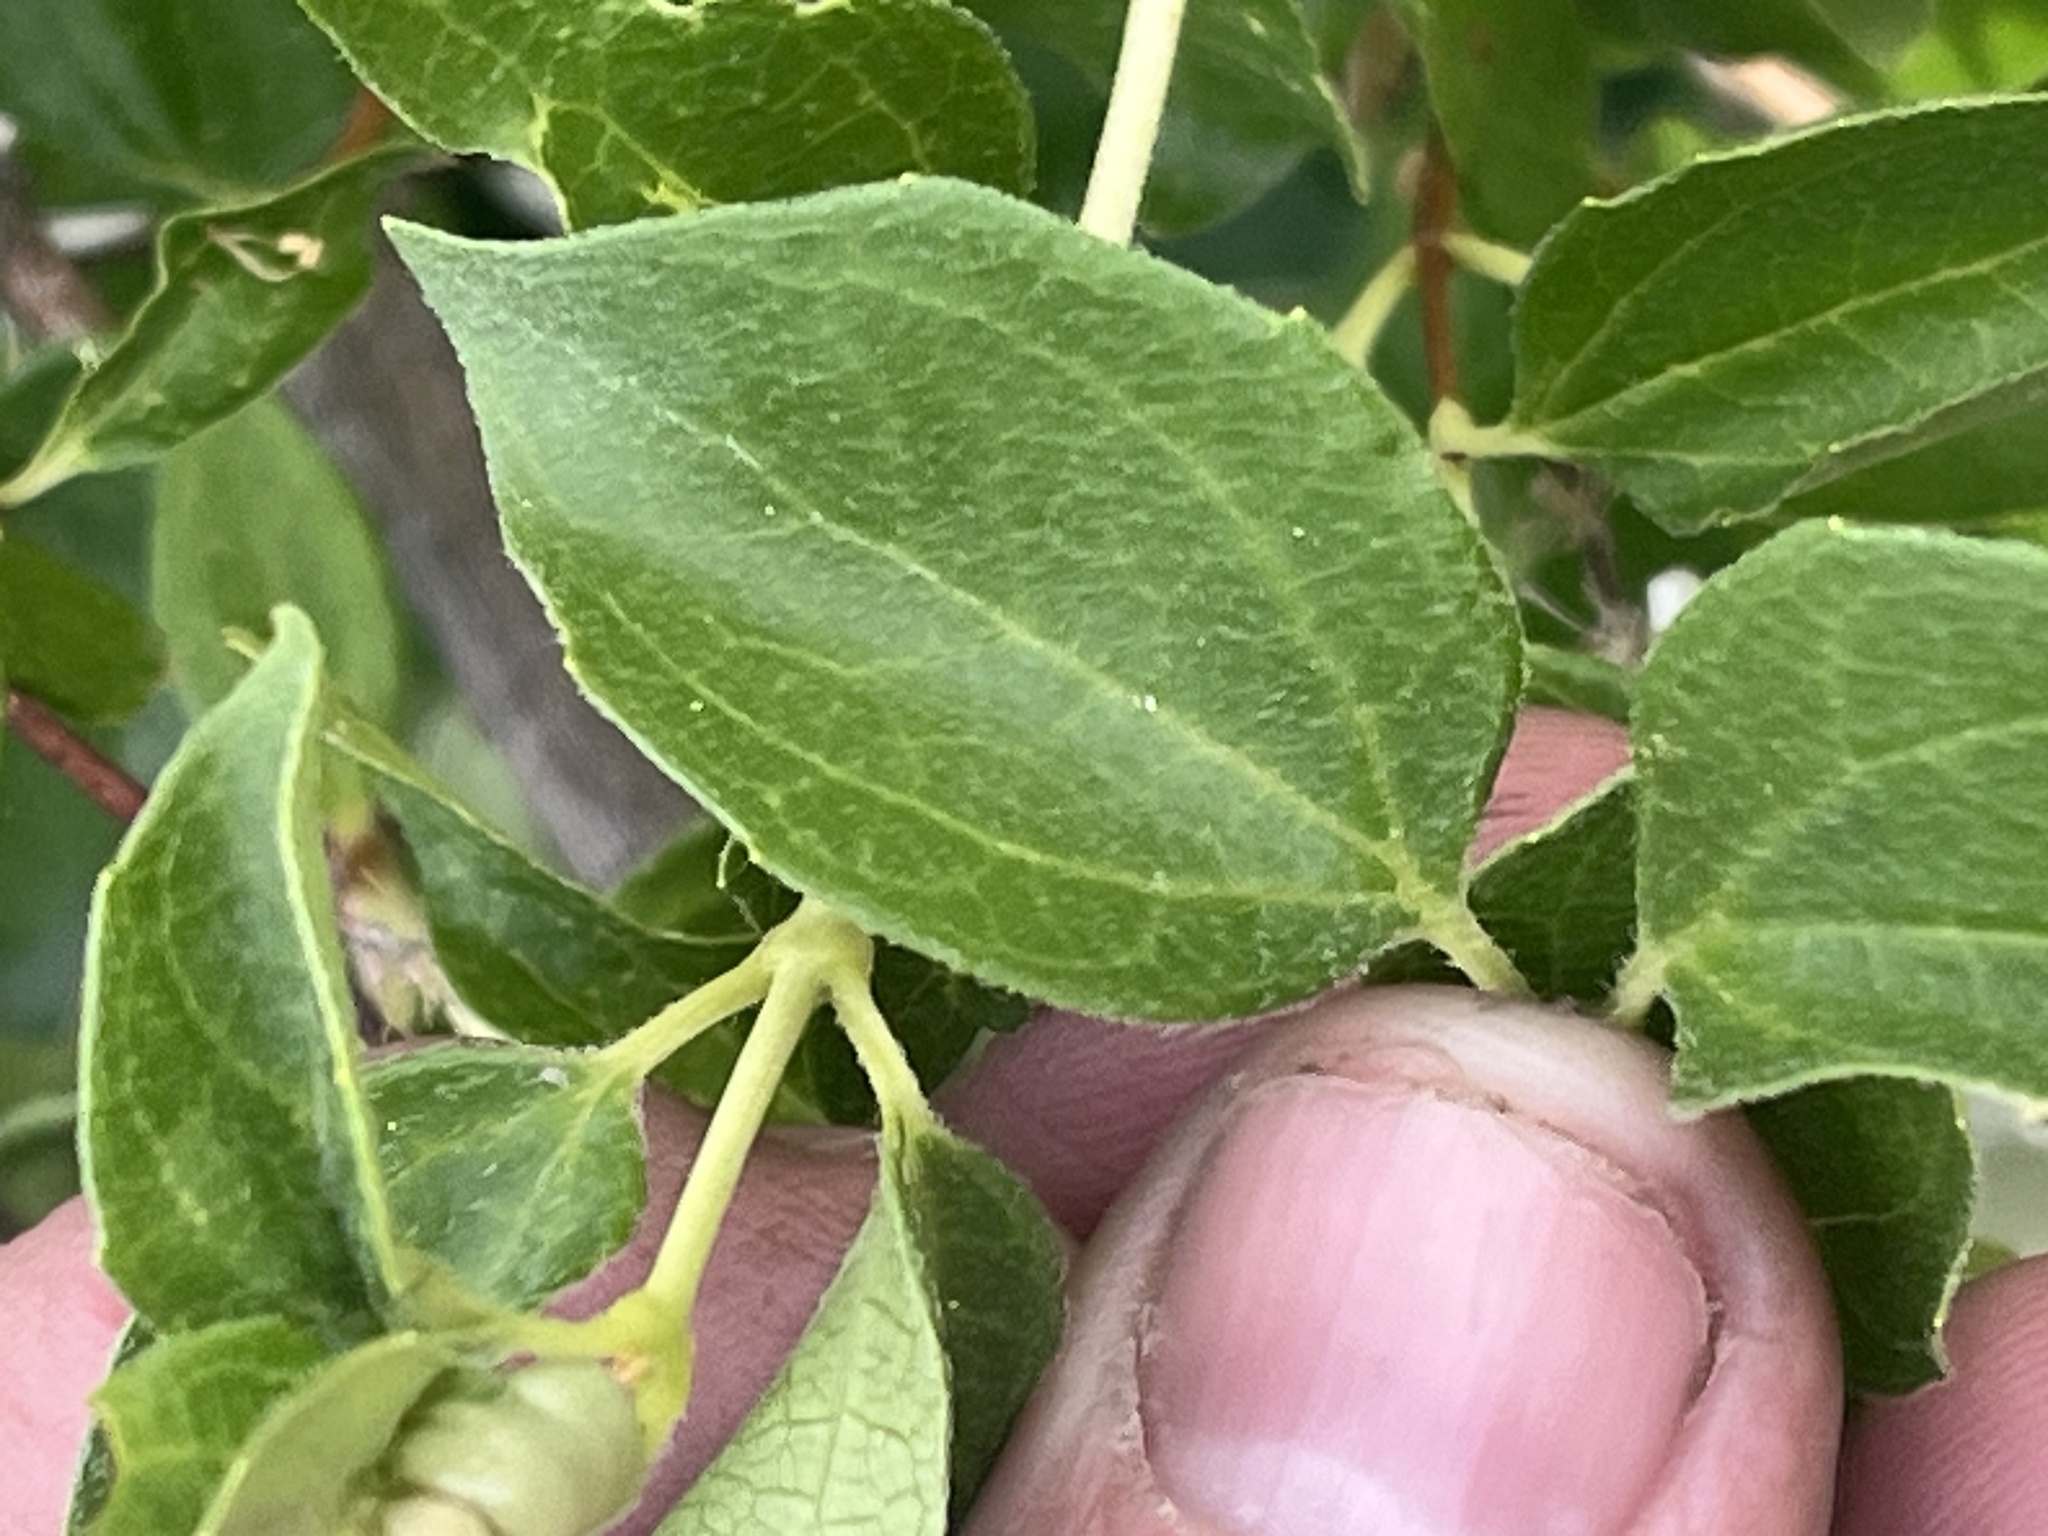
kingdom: Plantae
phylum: Tracheophyta
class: Magnoliopsida
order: Cornales
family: Hydrangeaceae
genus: Philadelphus
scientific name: Philadelphus lewisii
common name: Lewis's mock orange
